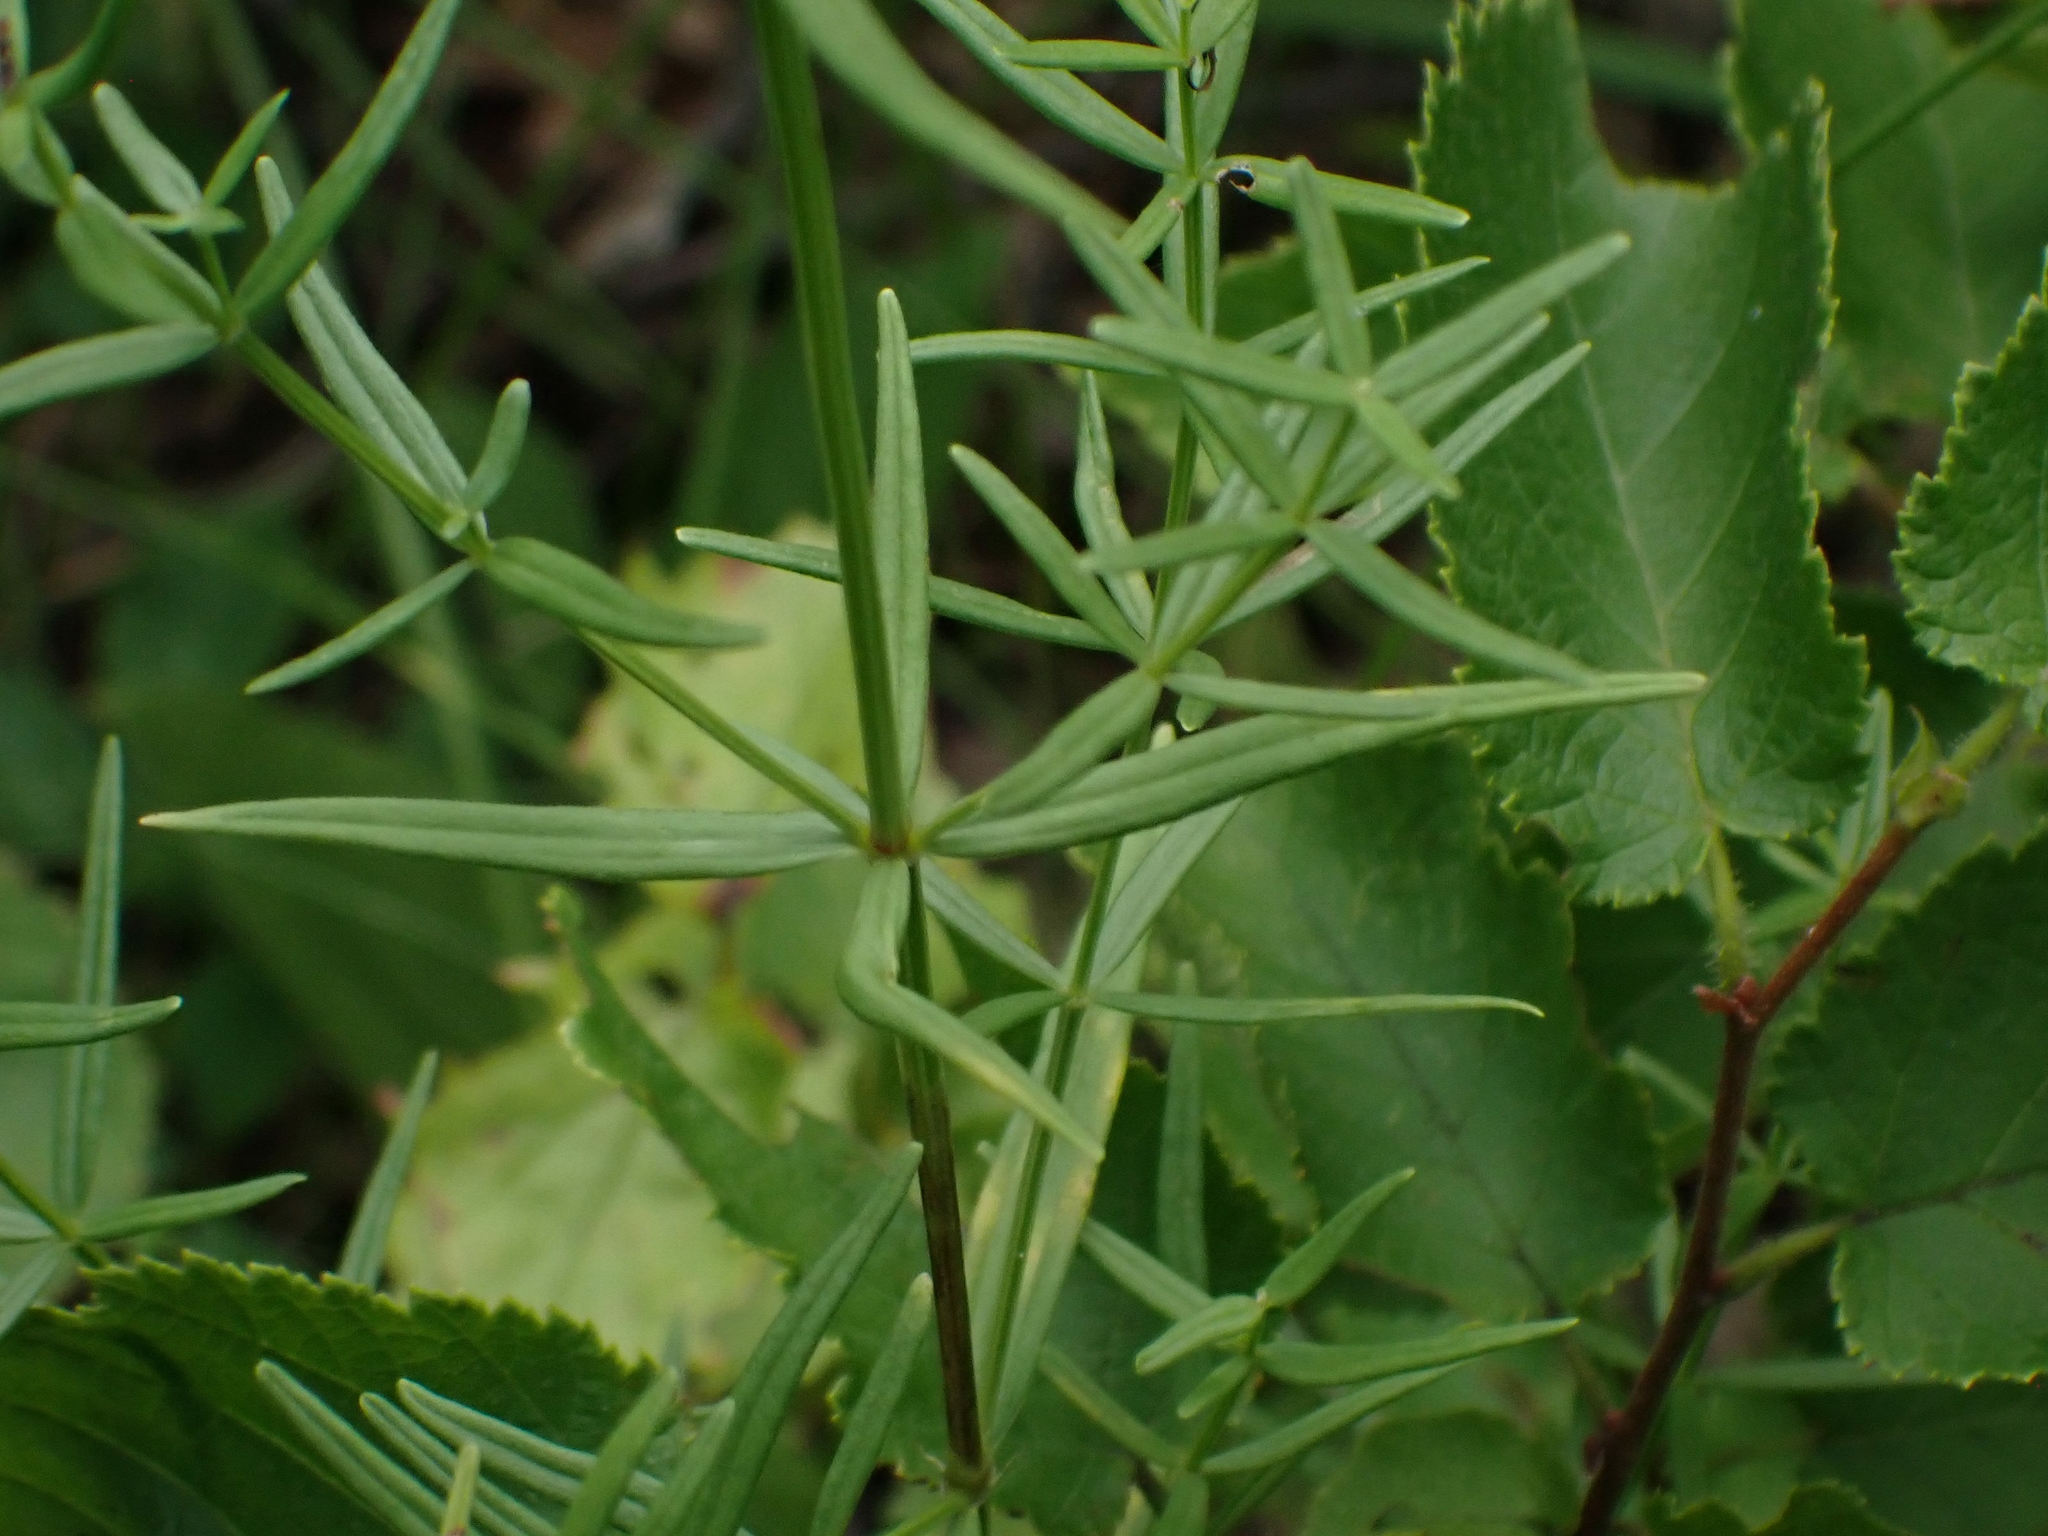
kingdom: Plantae
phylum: Tracheophyta
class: Magnoliopsida
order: Gentianales
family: Rubiaceae
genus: Galium
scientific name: Galium boreale
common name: Northern bedstraw
